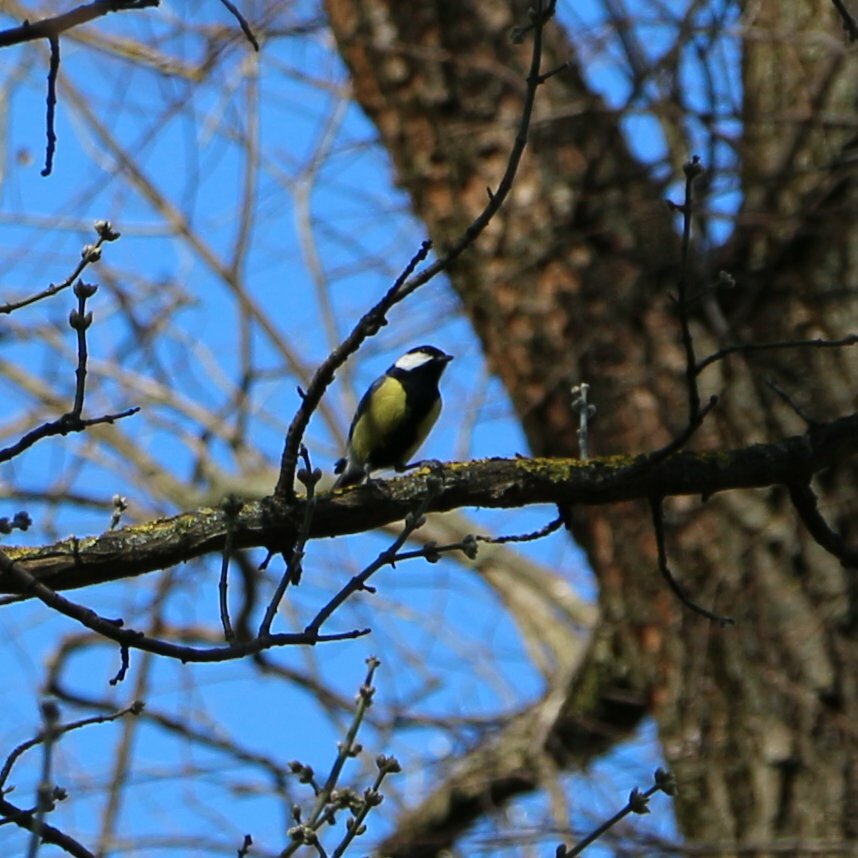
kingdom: Animalia
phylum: Chordata
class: Aves
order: Passeriformes
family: Paridae
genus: Parus
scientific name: Parus major
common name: Great tit
